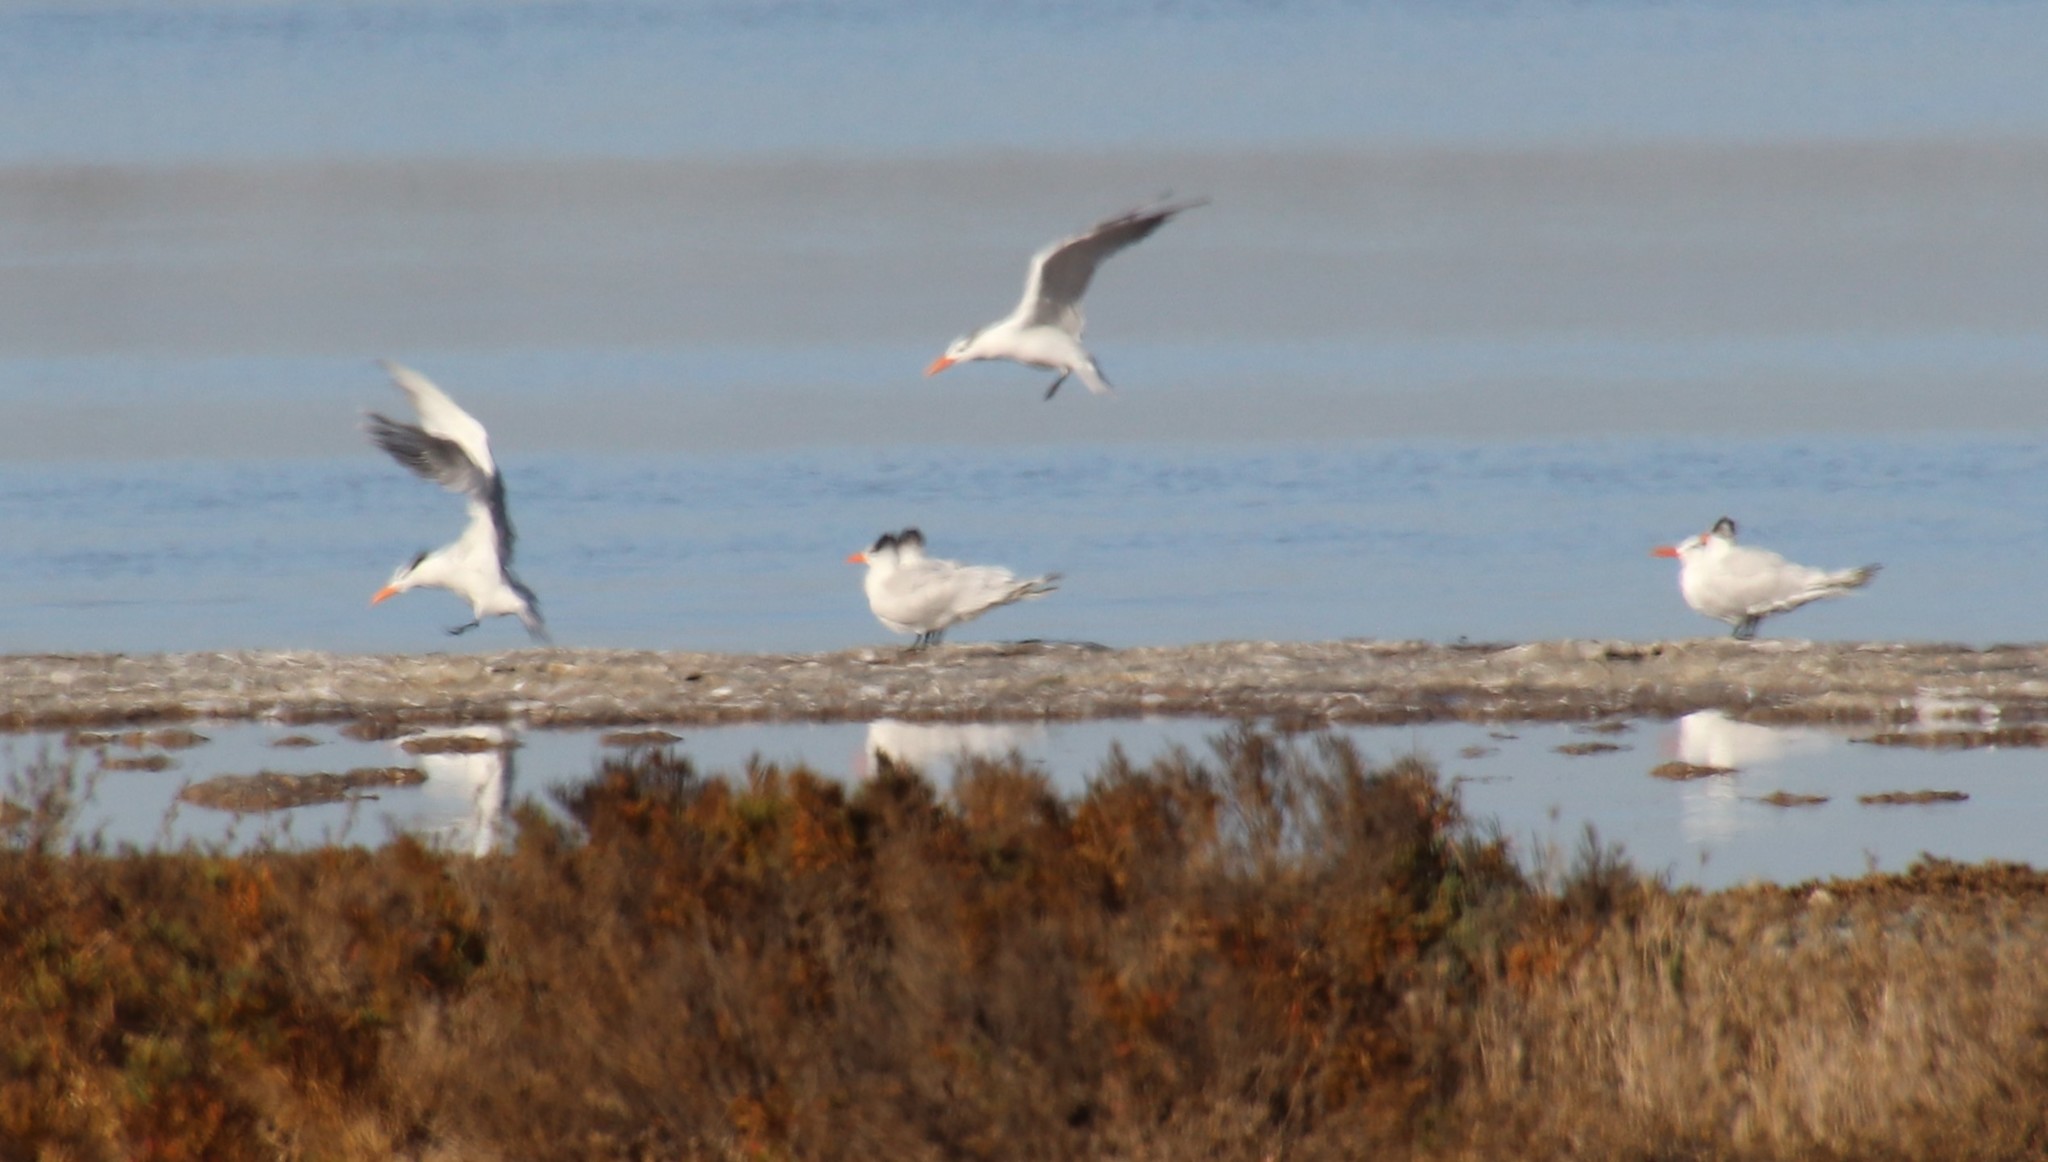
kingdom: Animalia
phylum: Chordata
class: Aves
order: Charadriiformes
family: Laridae
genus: Thalasseus
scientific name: Thalasseus maximus
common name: Royal tern
